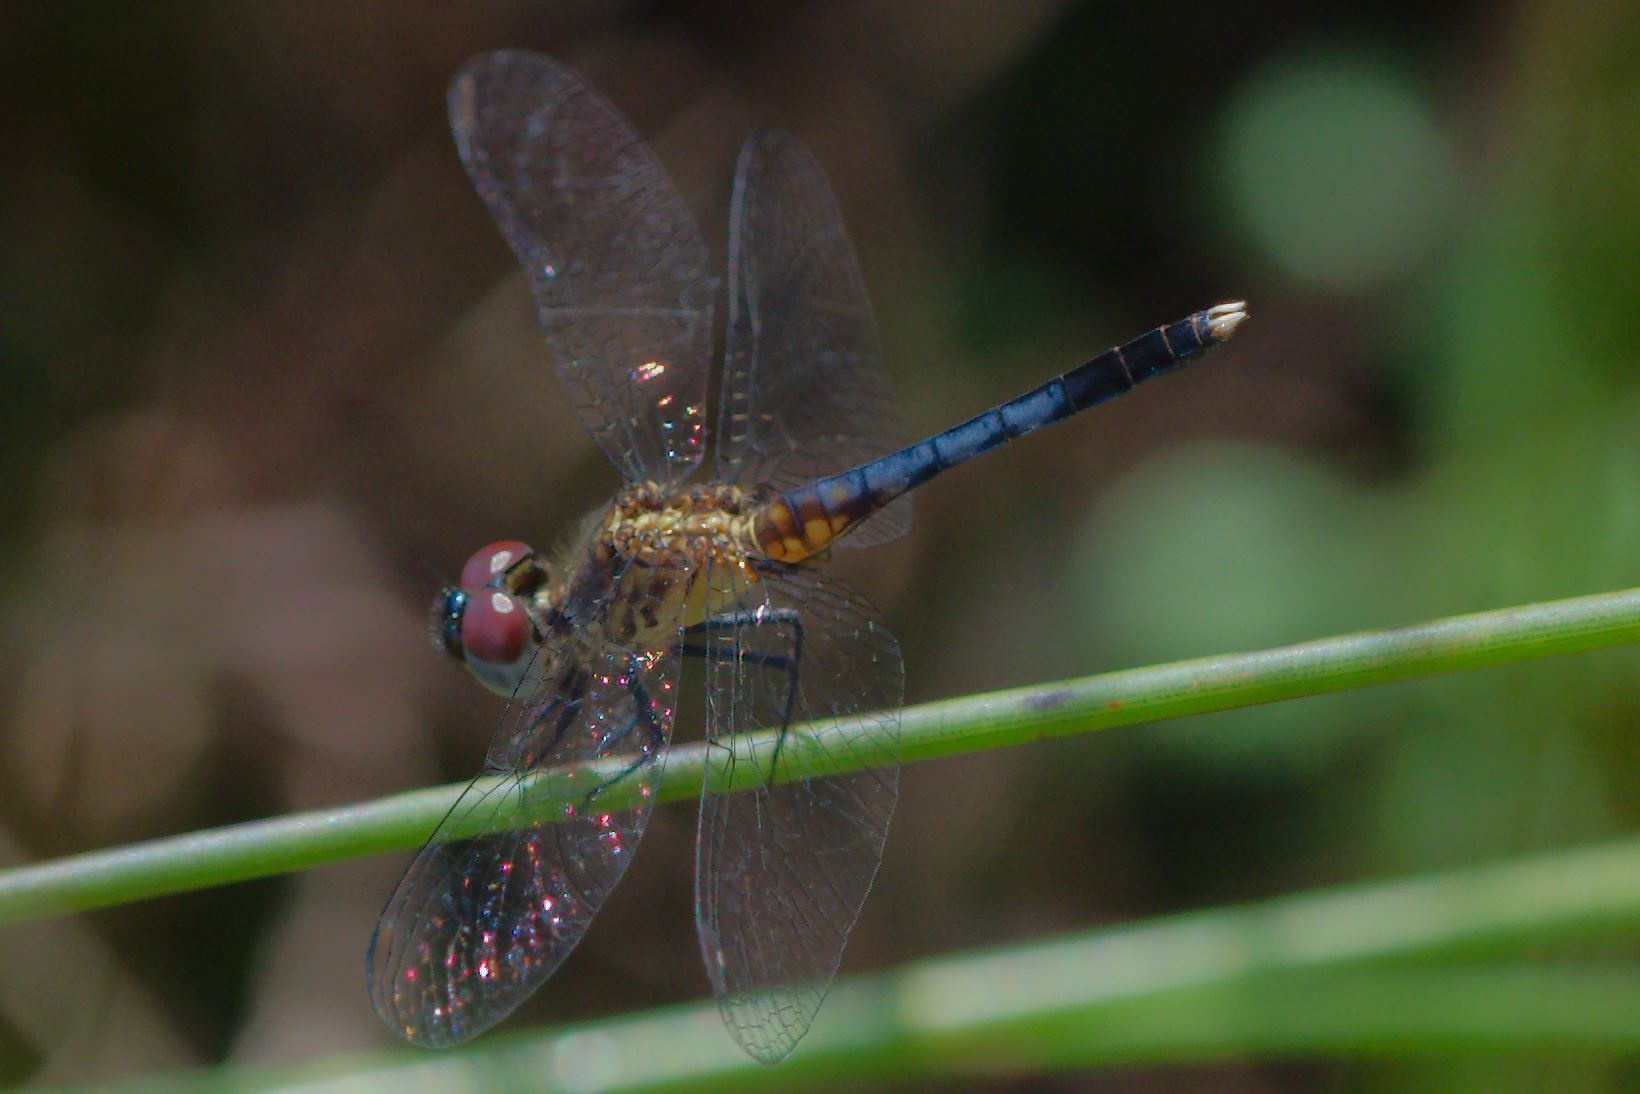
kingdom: Animalia
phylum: Arthropoda
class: Insecta
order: Odonata
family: Libellulidae
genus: Erythrodiplax
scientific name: Erythrodiplax minuscula
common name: Little blue dragonlet
